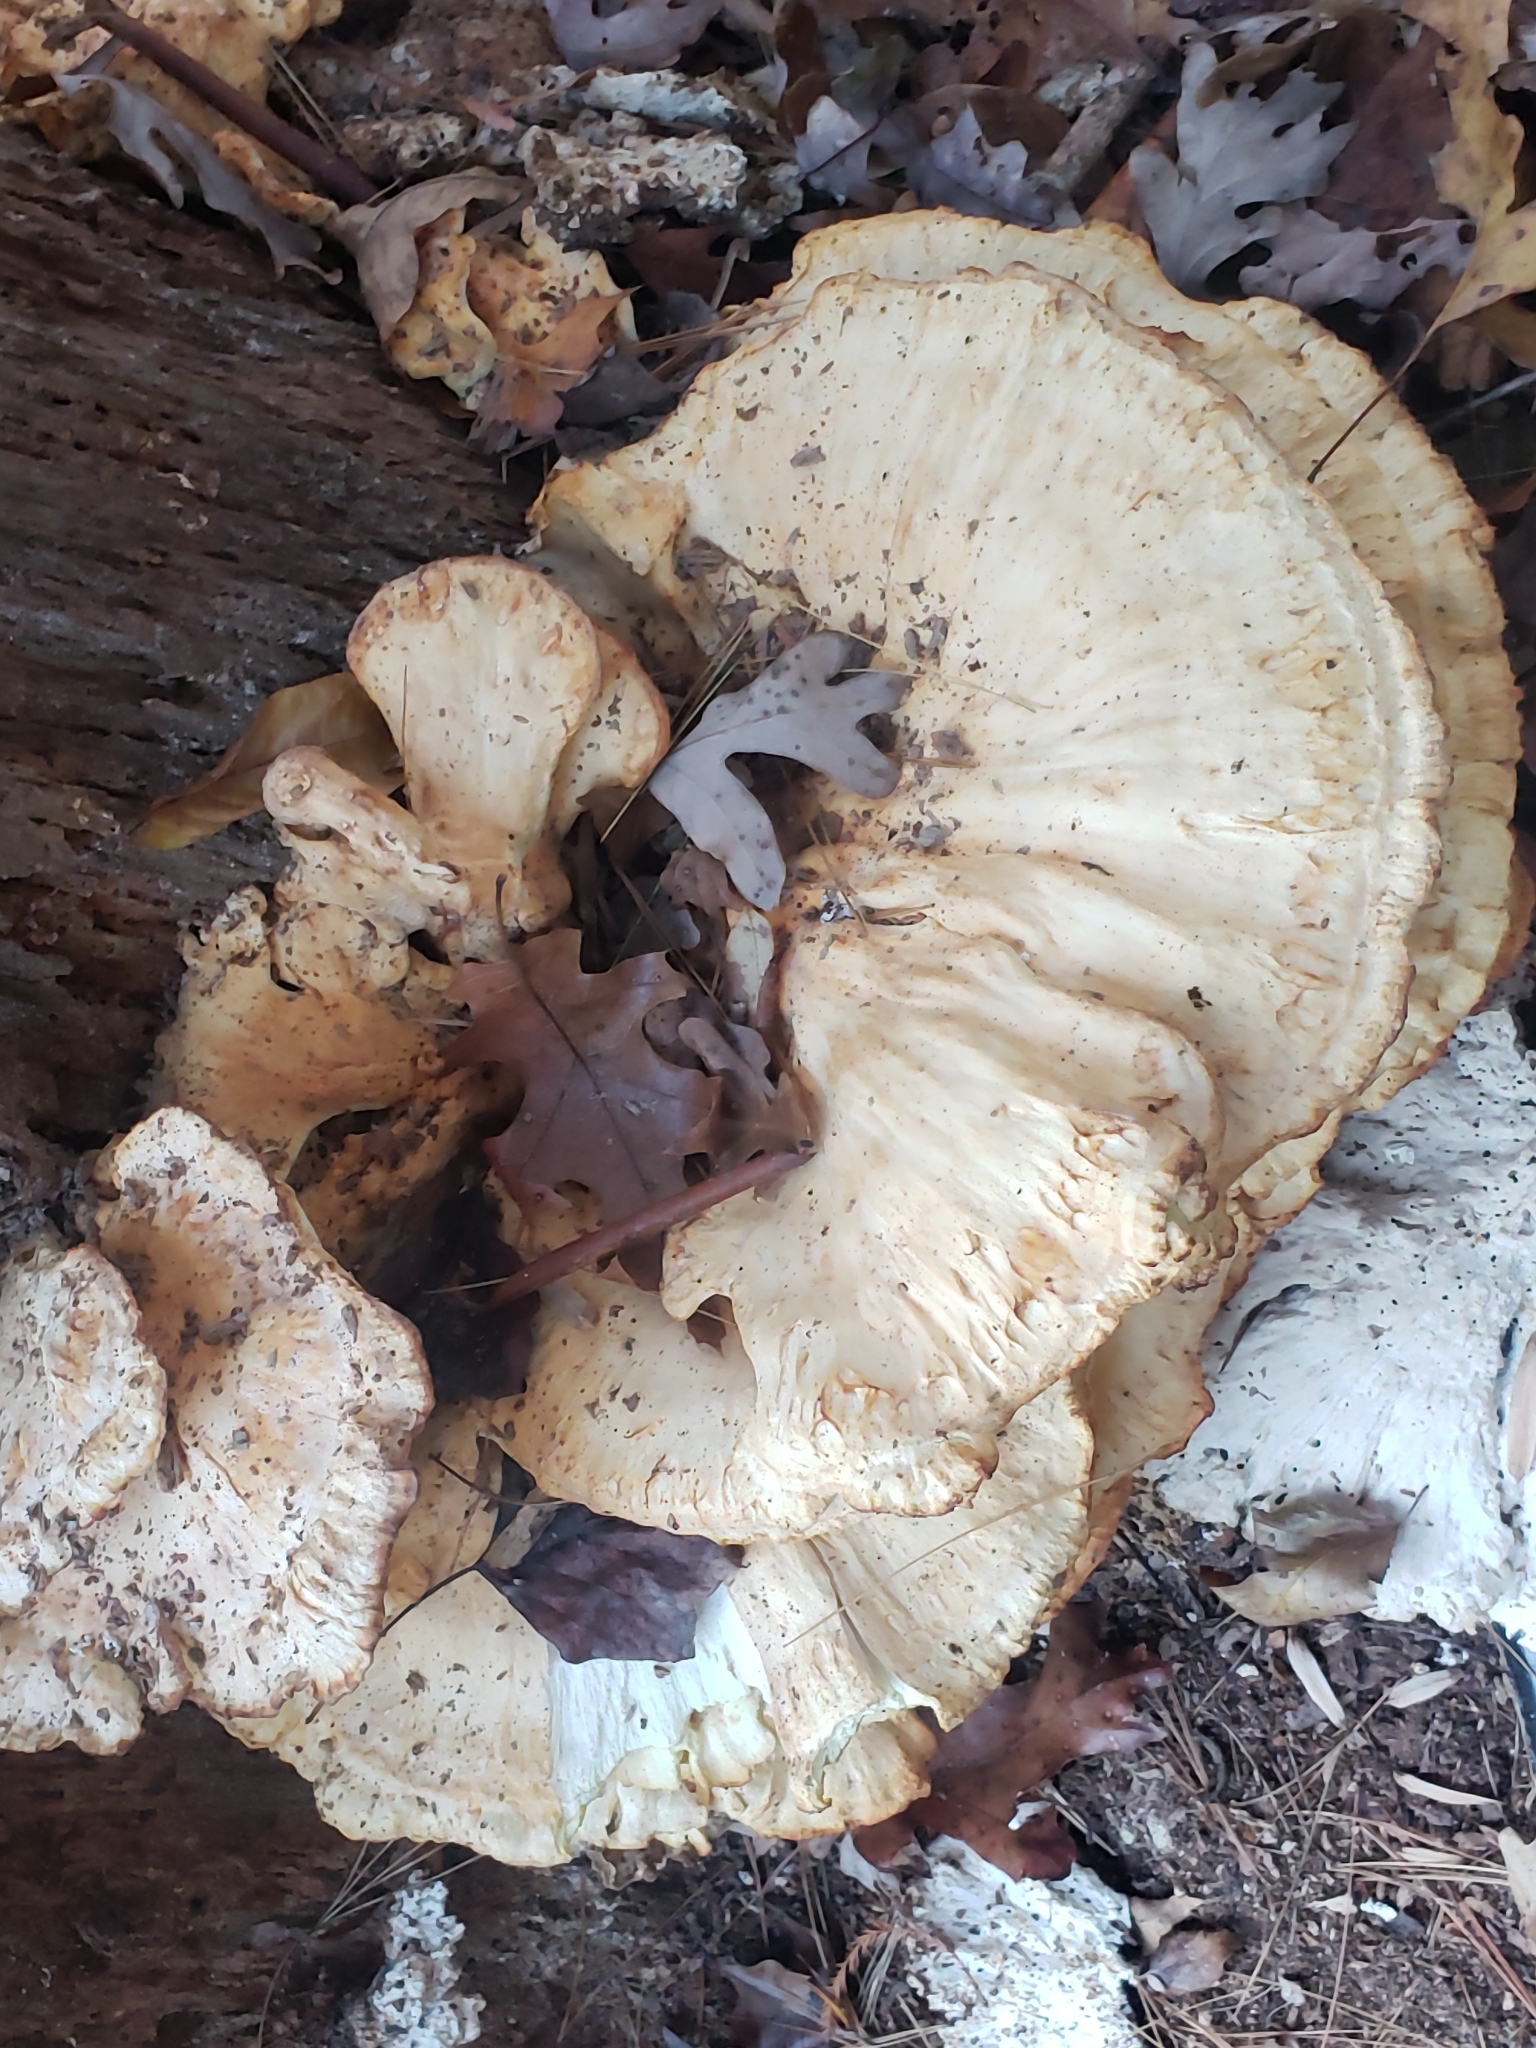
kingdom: Fungi
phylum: Basidiomycota
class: Agaricomycetes
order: Polyporales
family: Laetiporaceae
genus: Laetiporus
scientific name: Laetiporus sulphureus
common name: Chicken of the woods
